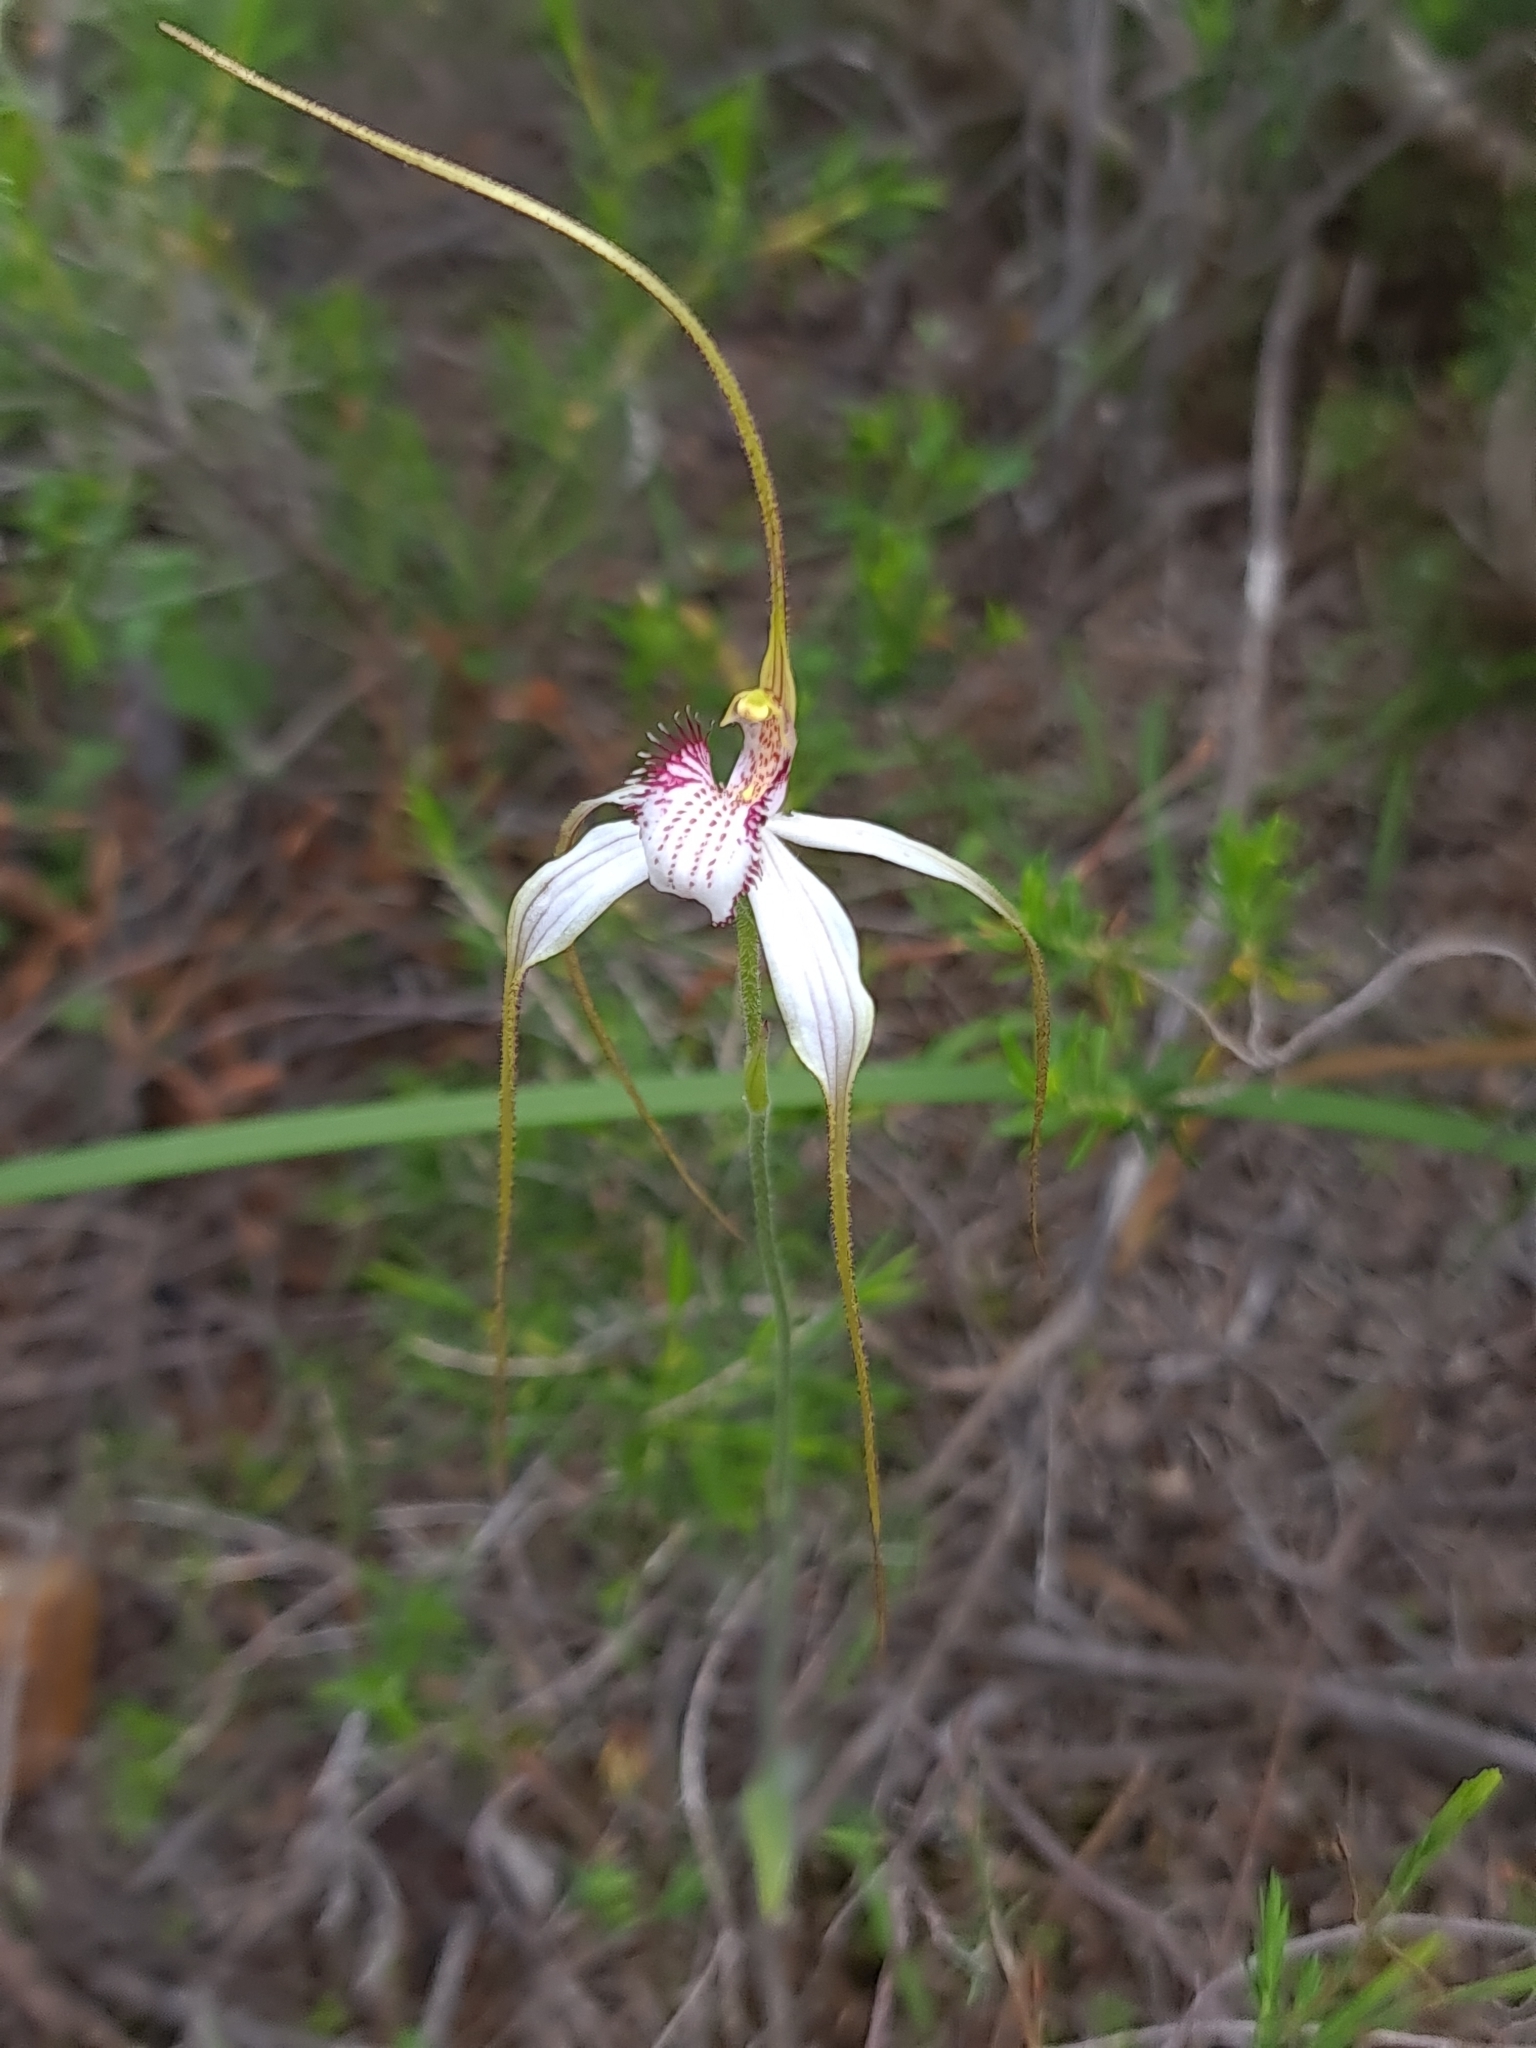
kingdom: Plantae
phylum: Tracheophyta
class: Liliopsida
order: Asparagales
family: Orchidaceae
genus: Caladenia
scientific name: Caladenia longicauda
